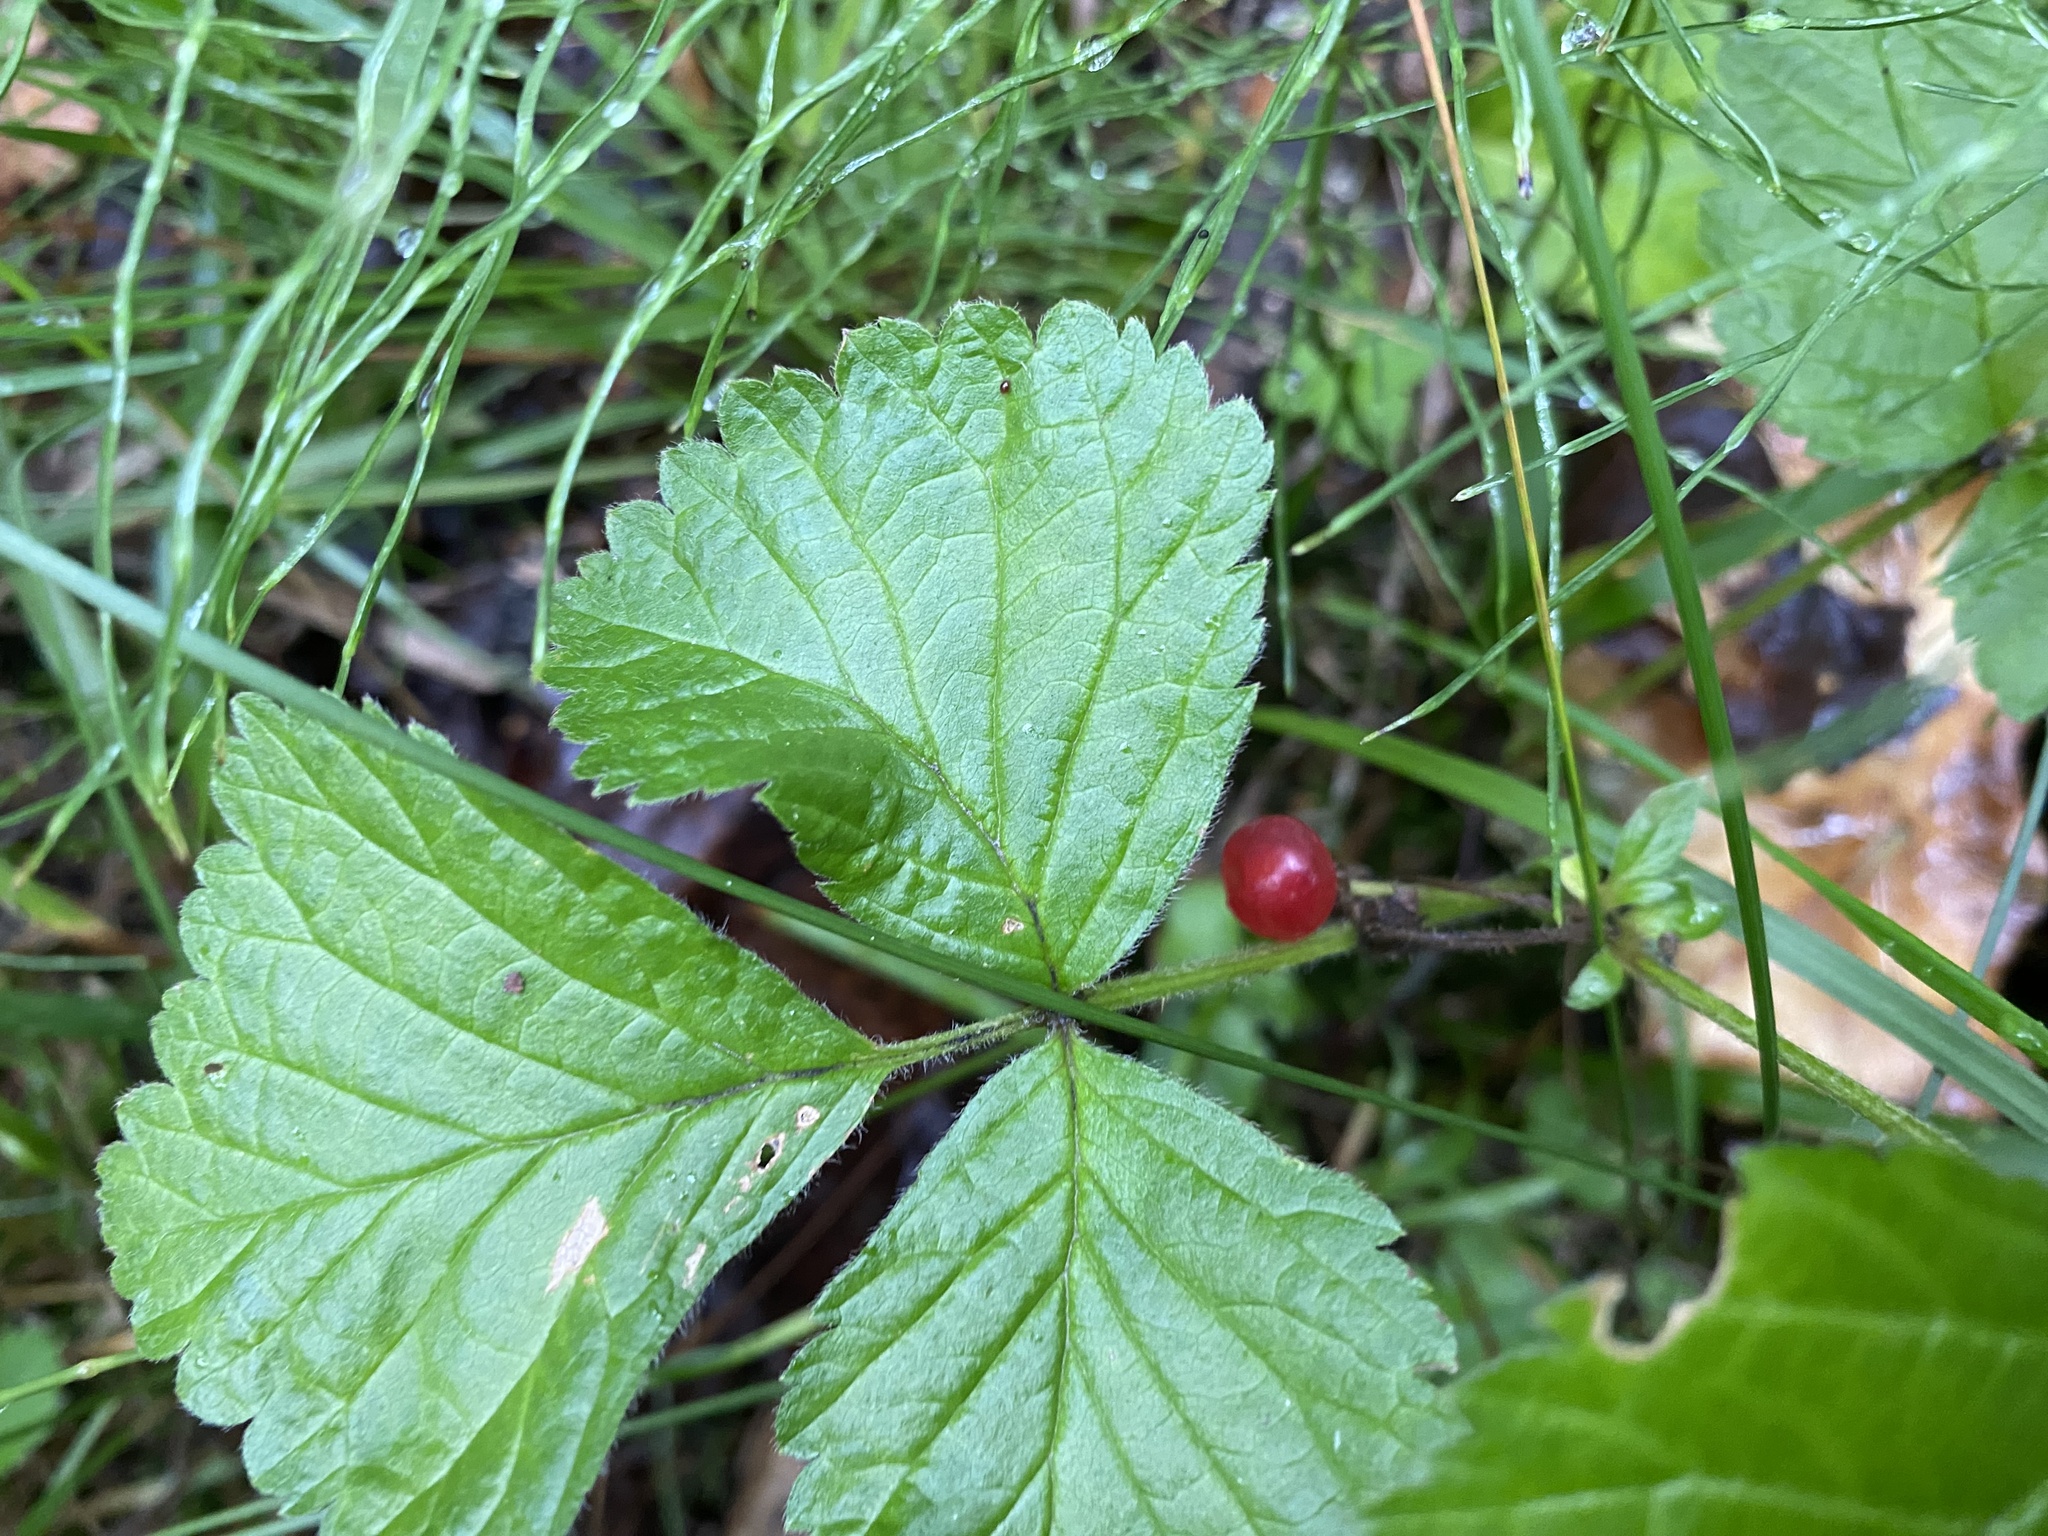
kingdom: Plantae
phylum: Tracheophyta
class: Magnoliopsida
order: Rosales
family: Rosaceae
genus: Rubus
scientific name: Rubus saxatilis
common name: Stone bramble
